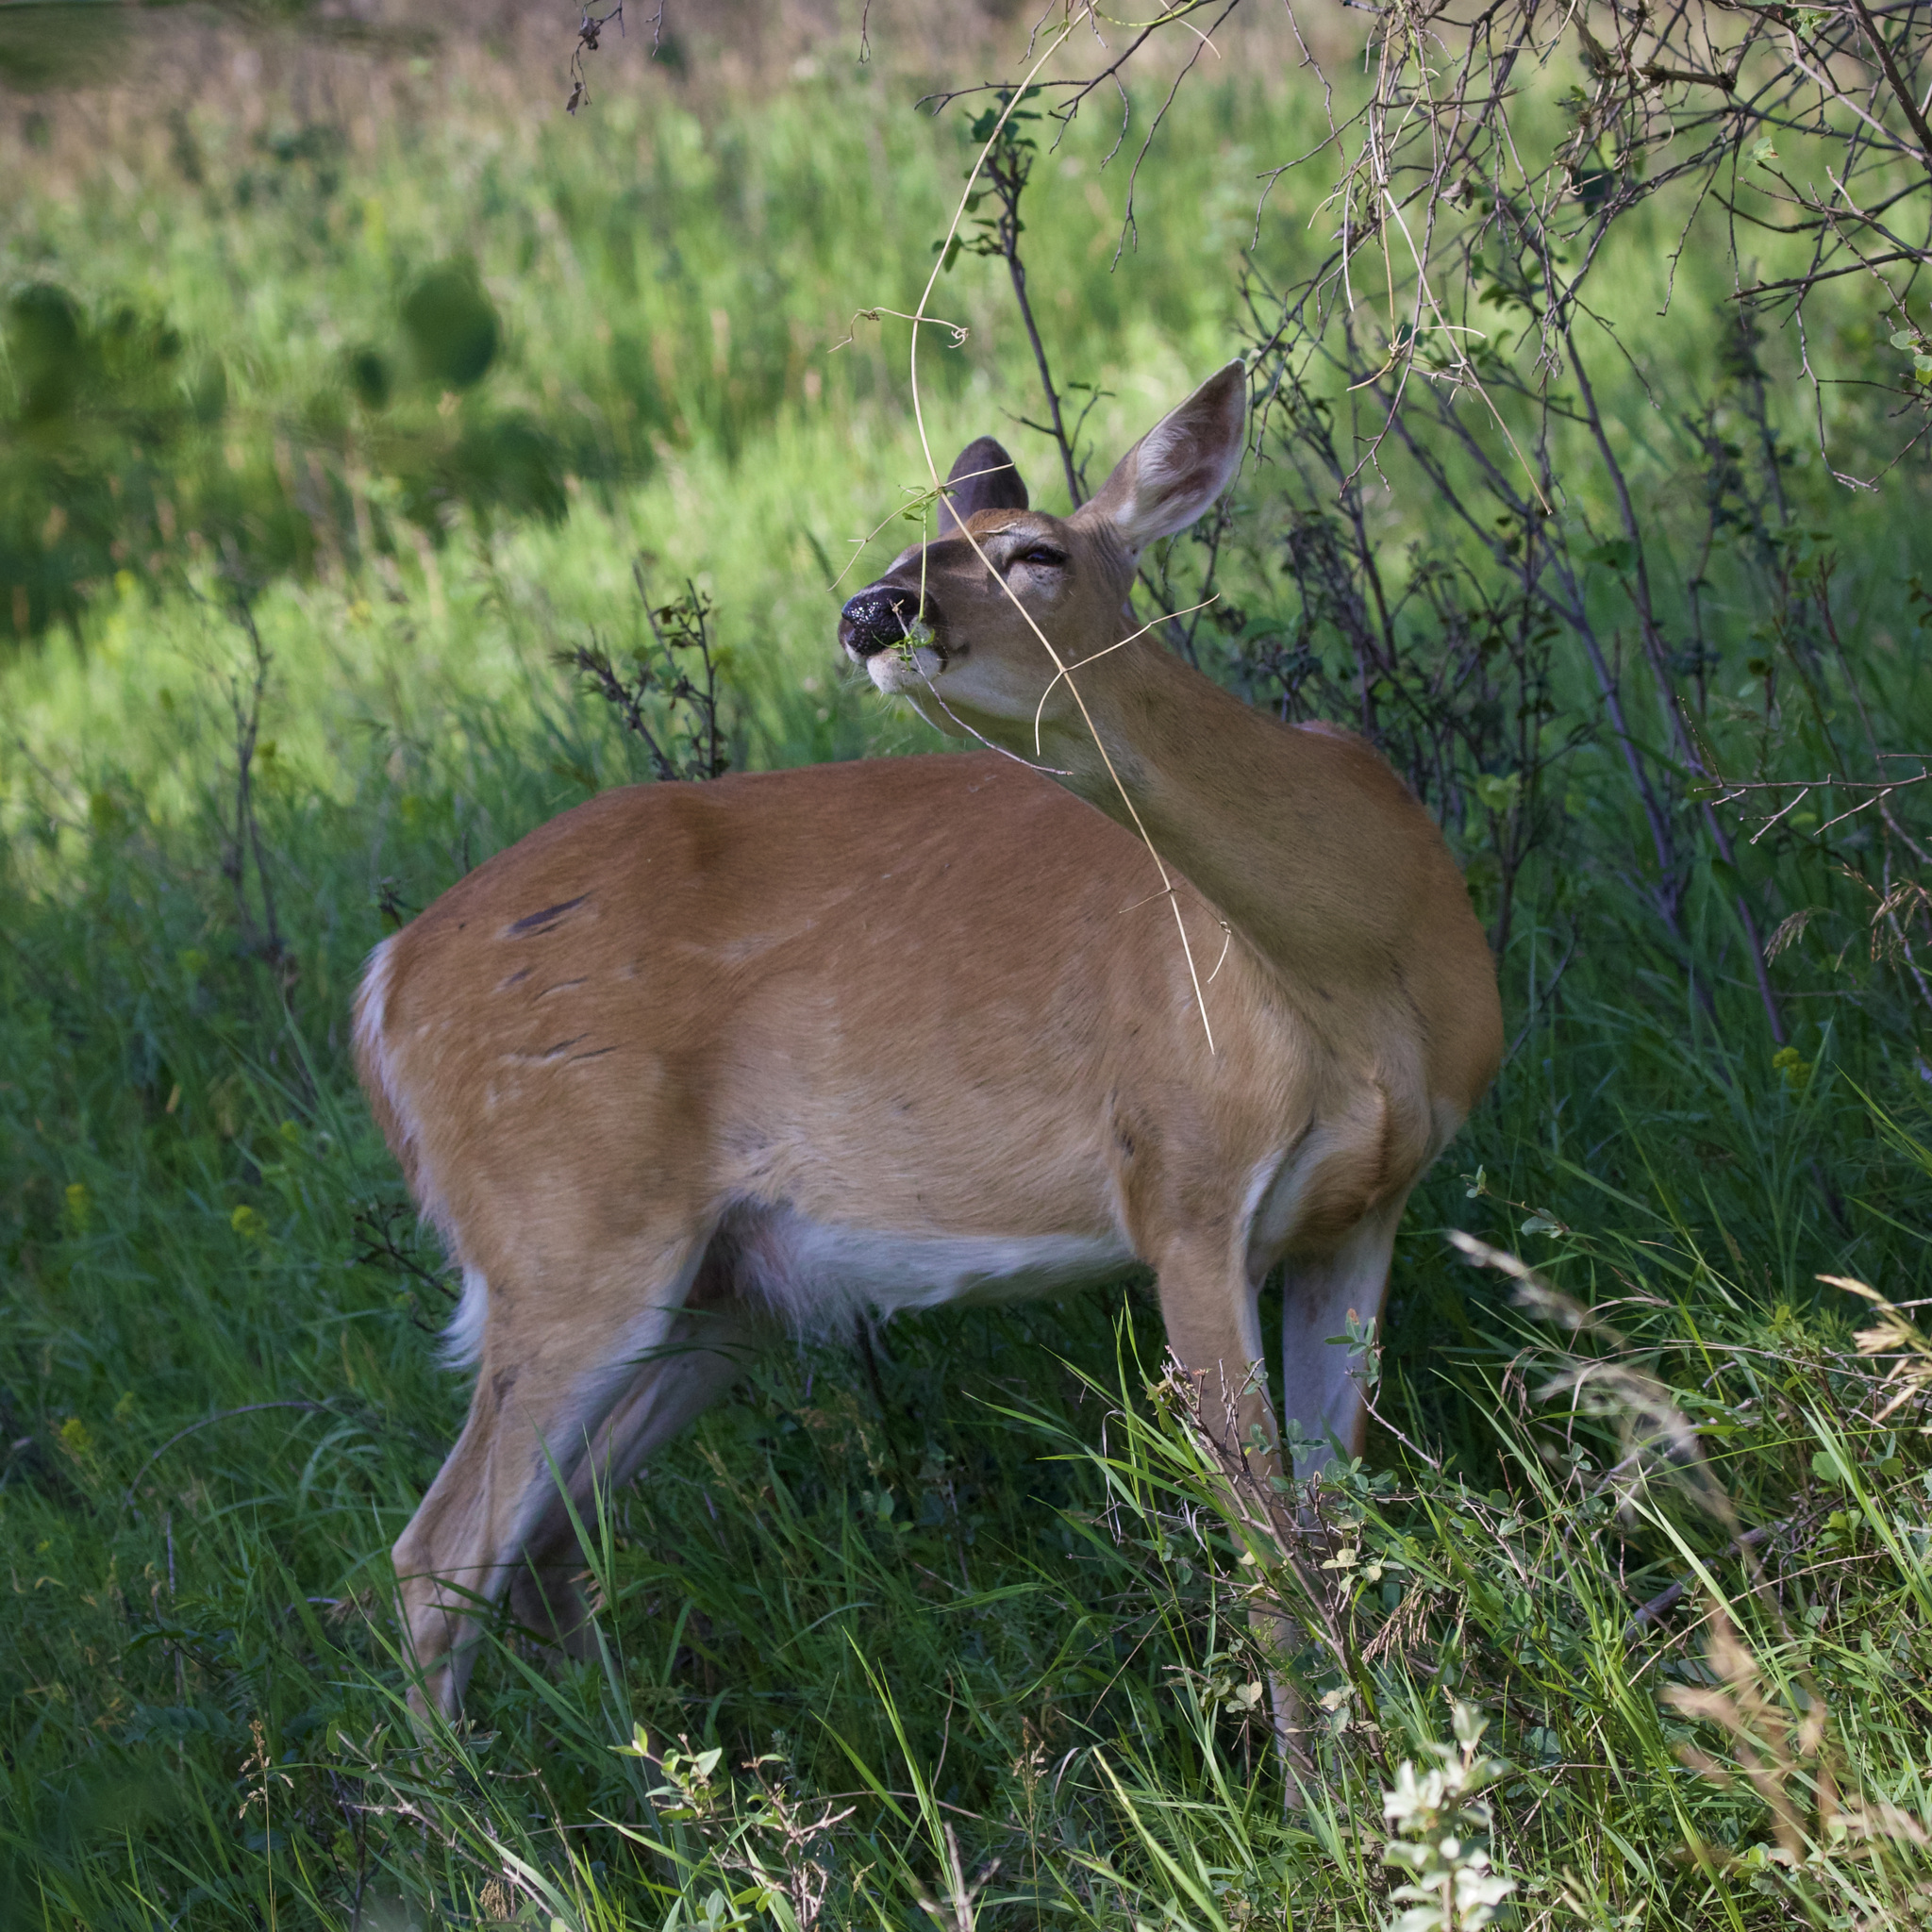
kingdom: Animalia
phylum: Chordata
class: Mammalia
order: Artiodactyla
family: Cervidae
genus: Odocoileus
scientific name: Odocoileus virginianus
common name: White-tailed deer
